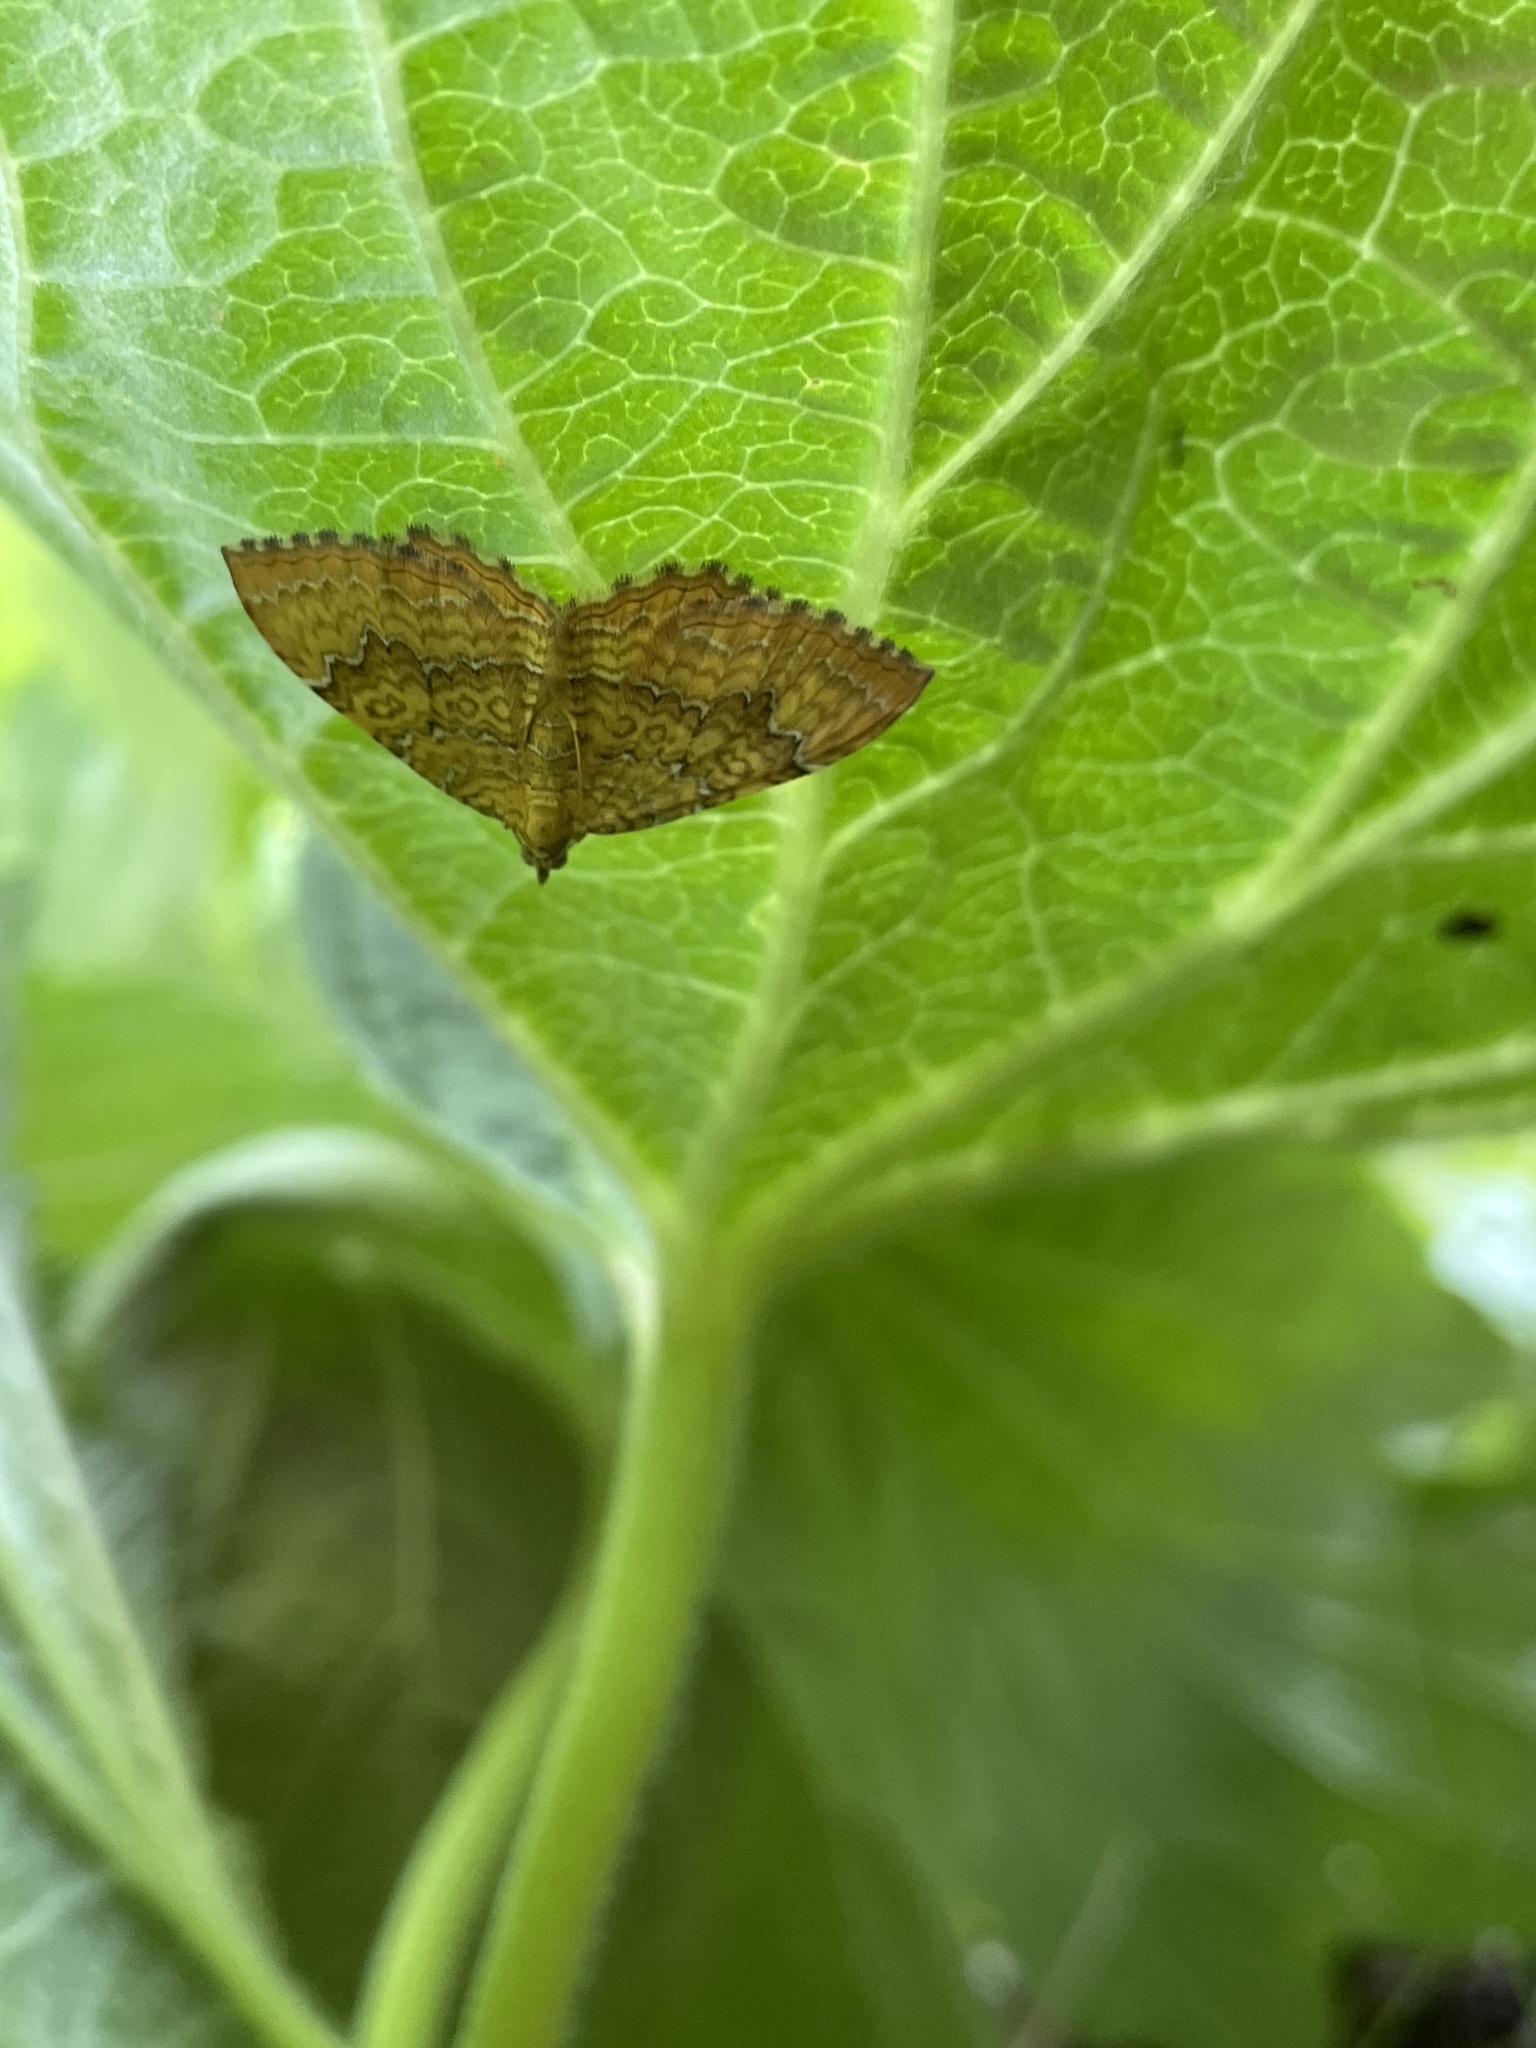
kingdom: Animalia
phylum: Arthropoda
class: Insecta
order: Lepidoptera
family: Geometridae
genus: Camptogramma
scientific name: Camptogramma bilineata
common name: Yellow shell
